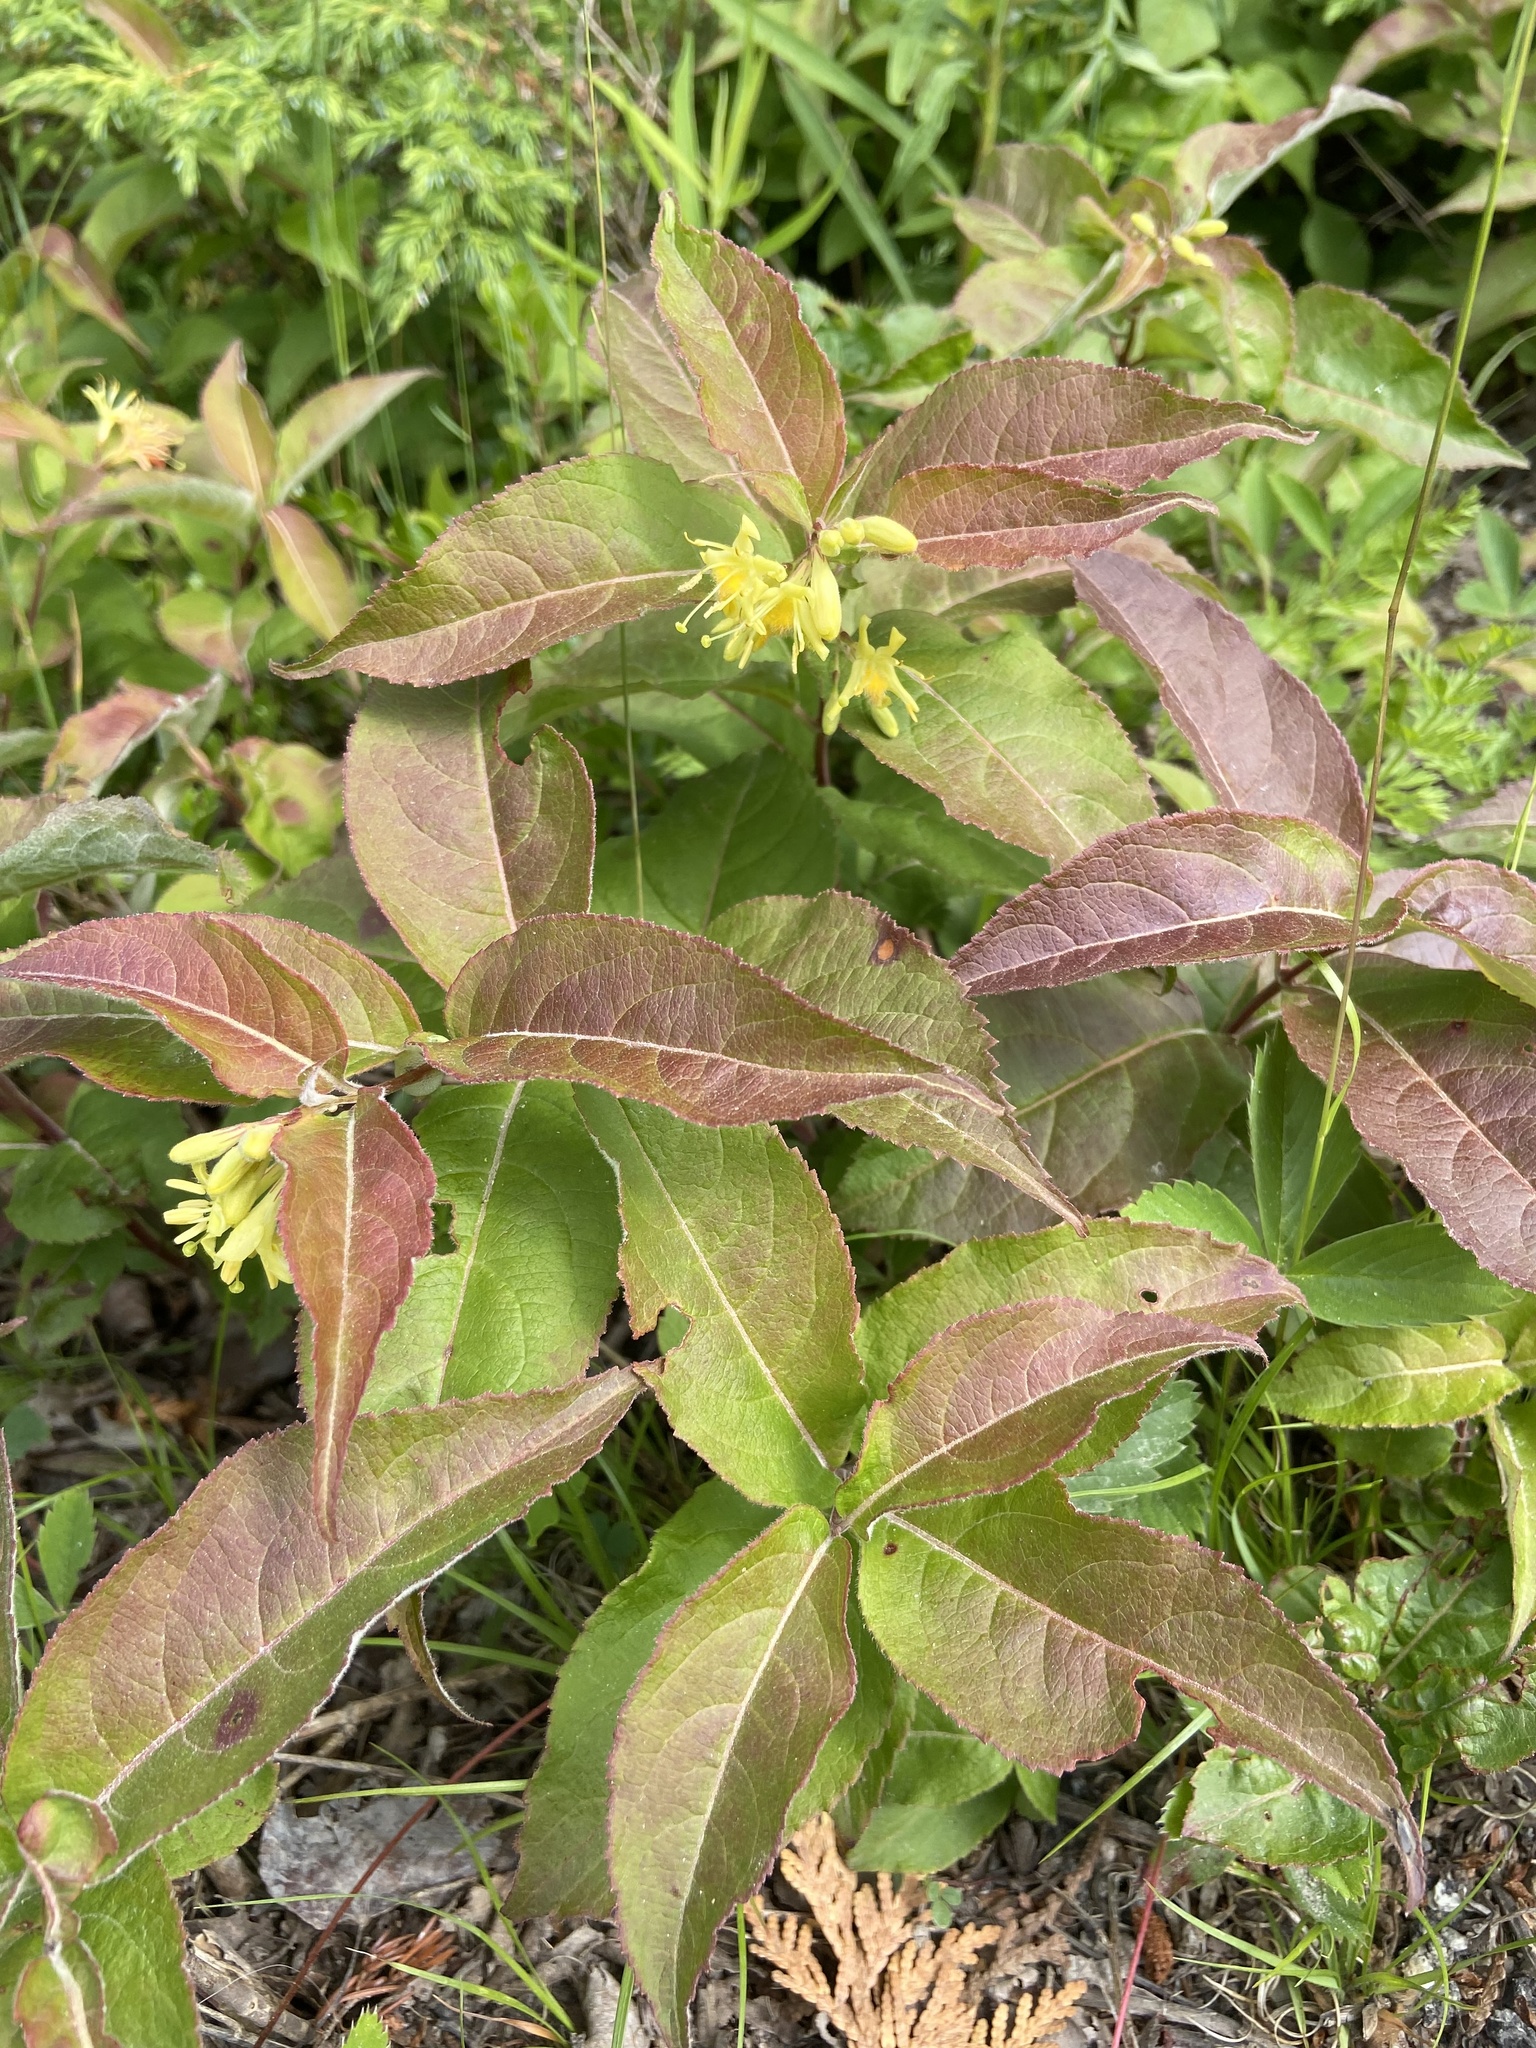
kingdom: Plantae
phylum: Tracheophyta
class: Magnoliopsida
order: Dipsacales
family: Caprifoliaceae
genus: Diervilla
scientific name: Diervilla lonicera
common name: Bush-honeysuckle
